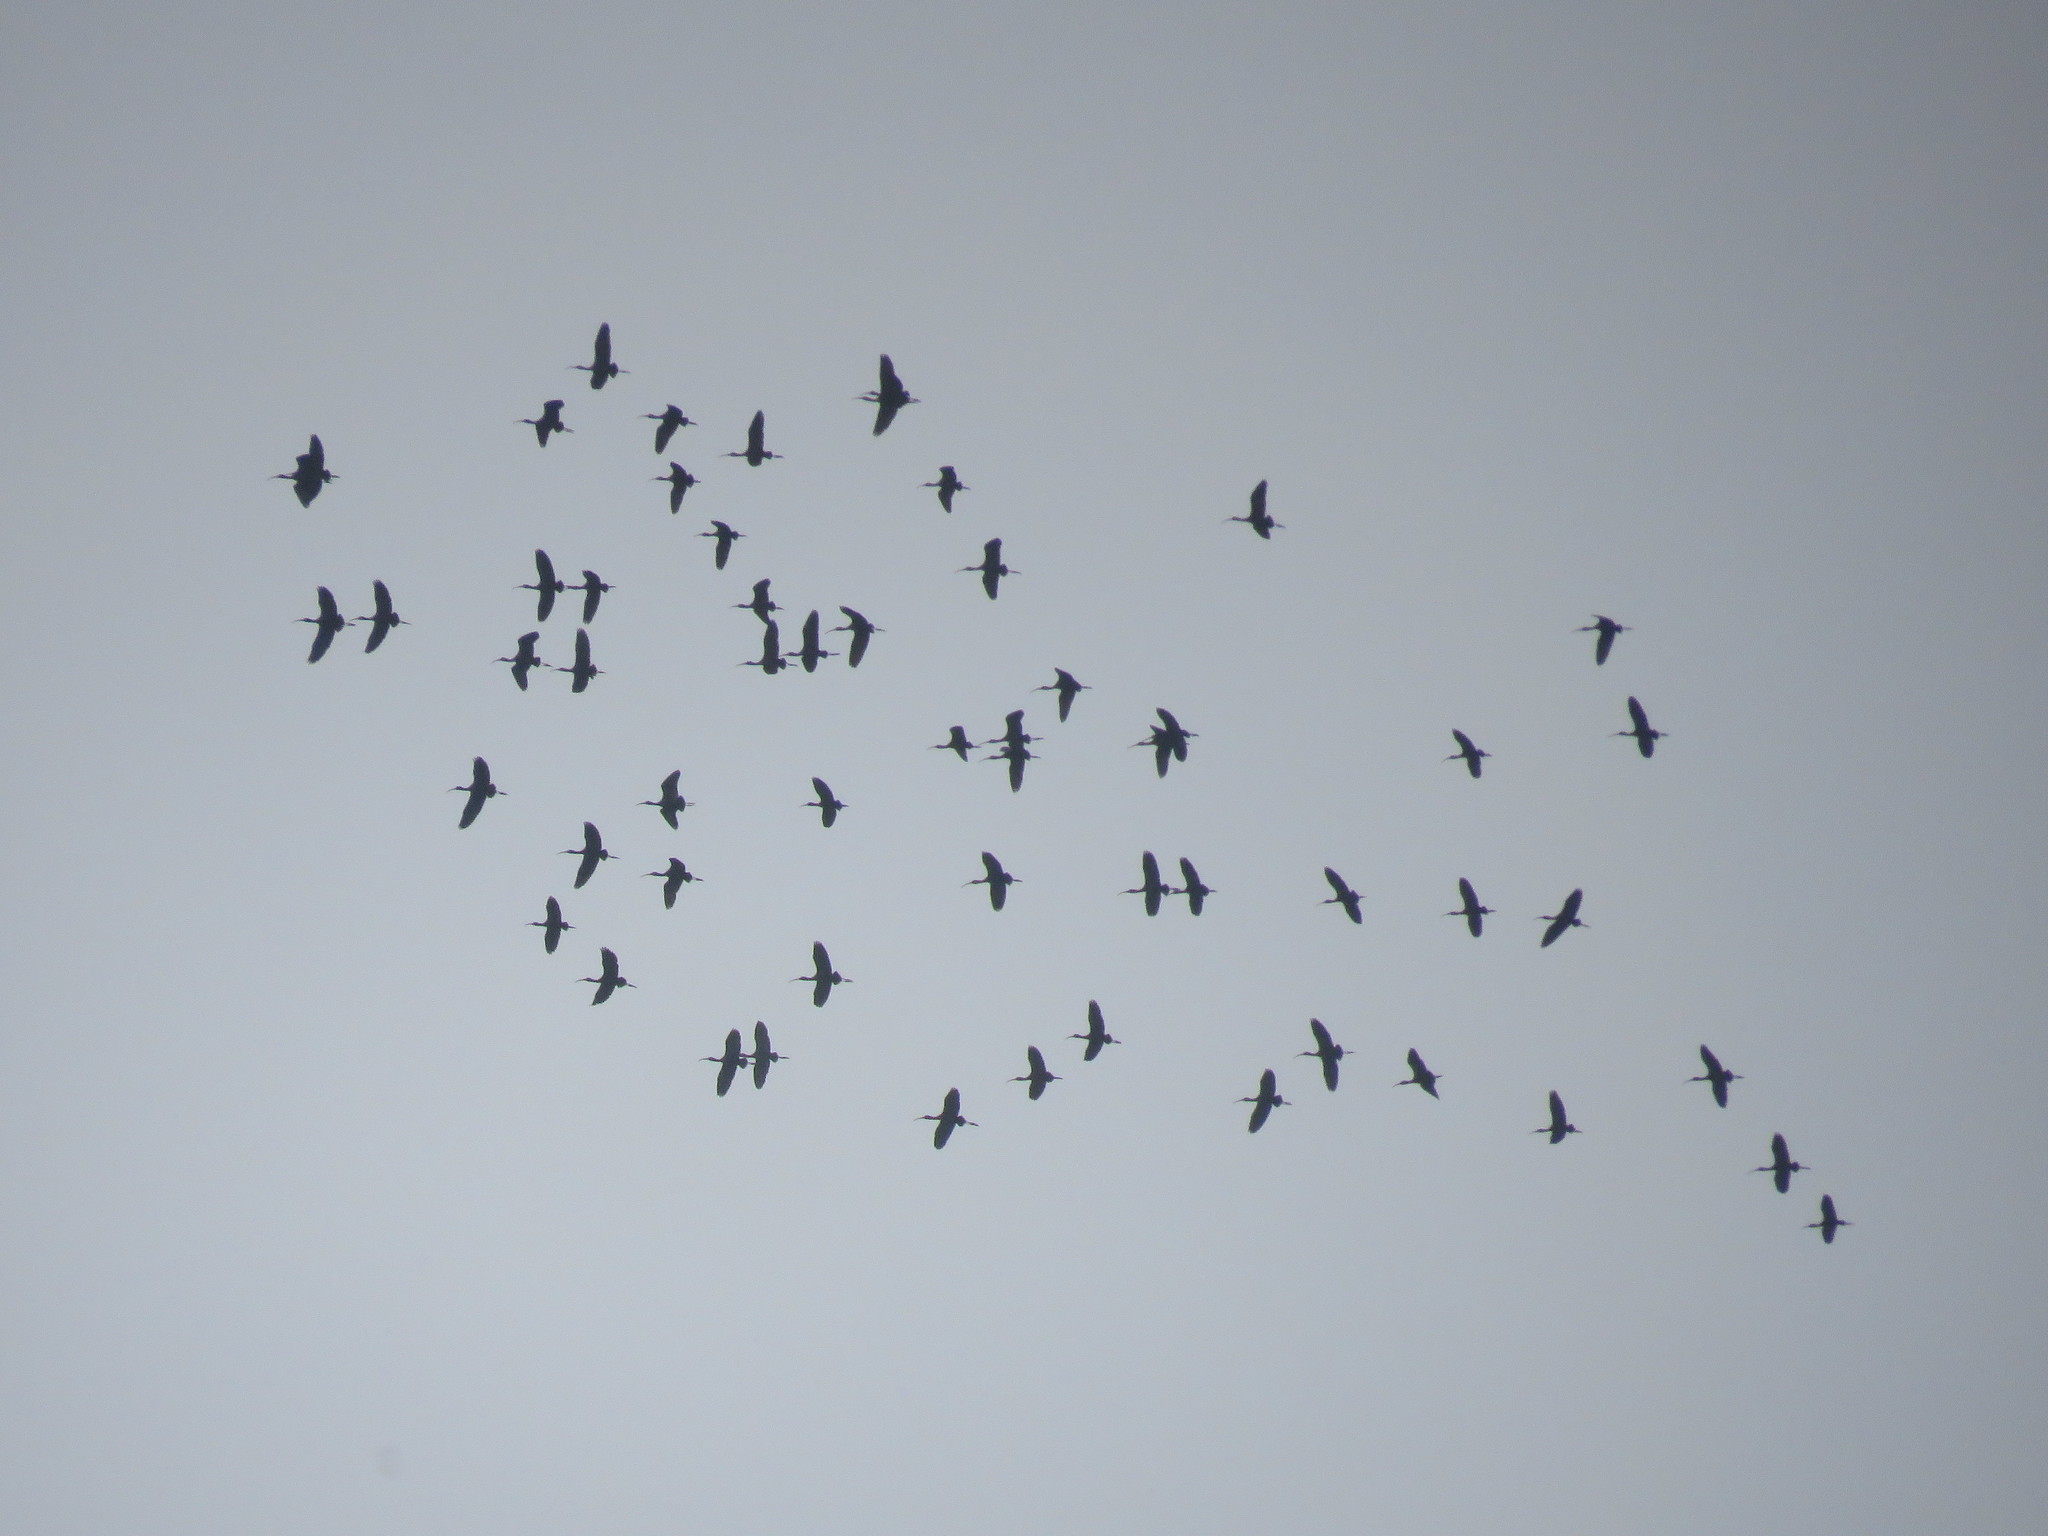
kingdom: Animalia
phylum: Chordata
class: Aves
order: Pelecaniformes
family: Threskiornithidae
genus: Plegadis
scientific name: Plegadis chihi
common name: White-faced ibis
